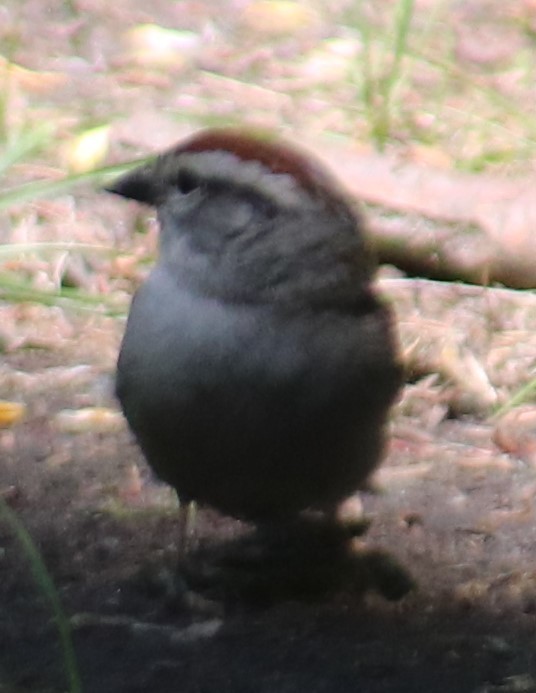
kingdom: Animalia
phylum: Chordata
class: Aves
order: Passeriformes
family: Passerellidae
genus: Spizella
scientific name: Spizella passerina
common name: Chipping sparrow
